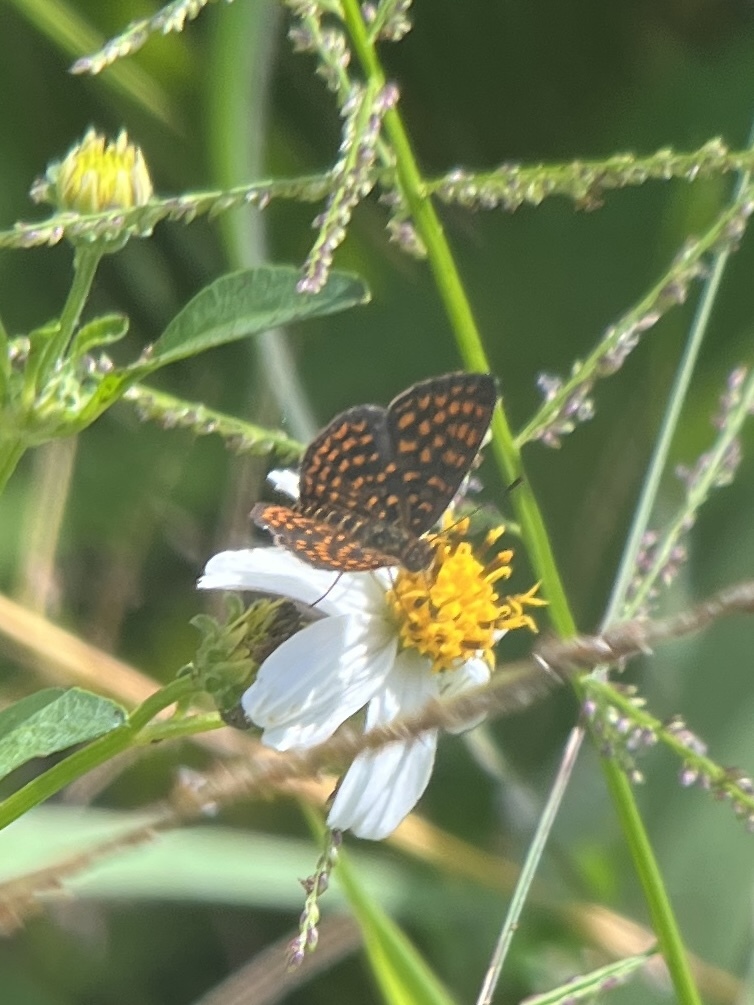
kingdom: Animalia
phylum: Arthropoda
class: Insecta
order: Lepidoptera
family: Nymphalidae
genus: Antillea
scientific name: Antillea pelops
